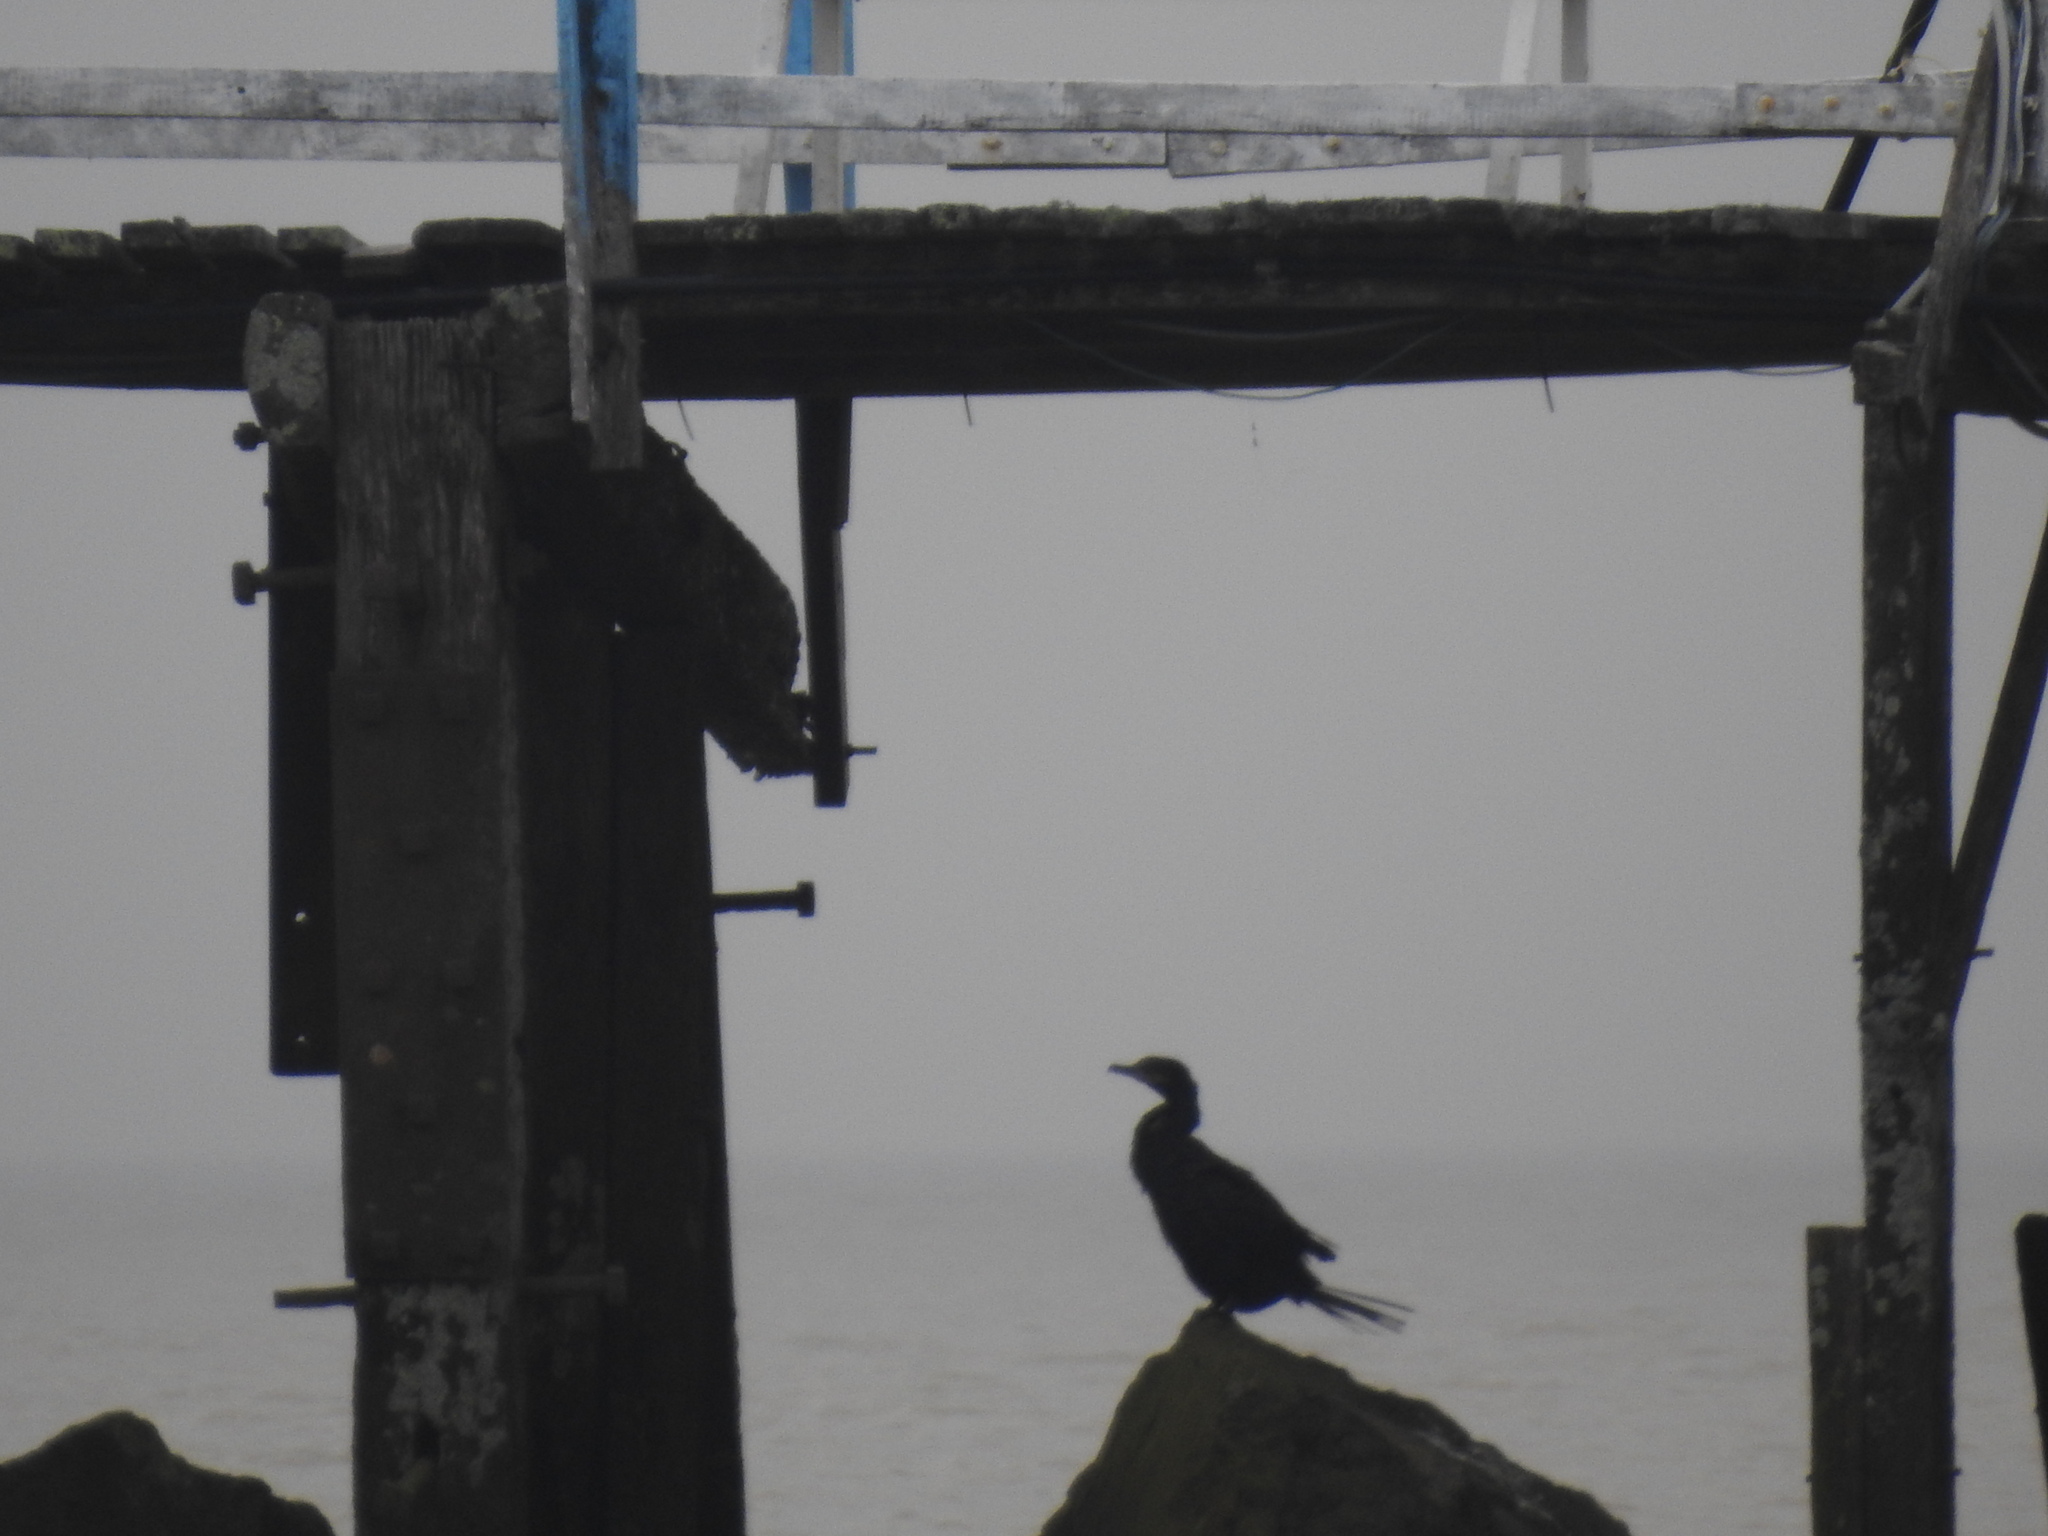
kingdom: Animalia
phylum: Chordata
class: Aves
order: Suliformes
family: Phalacrocoracidae
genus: Phalacrocorax
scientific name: Phalacrocorax brasilianus
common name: Neotropic cormorant
